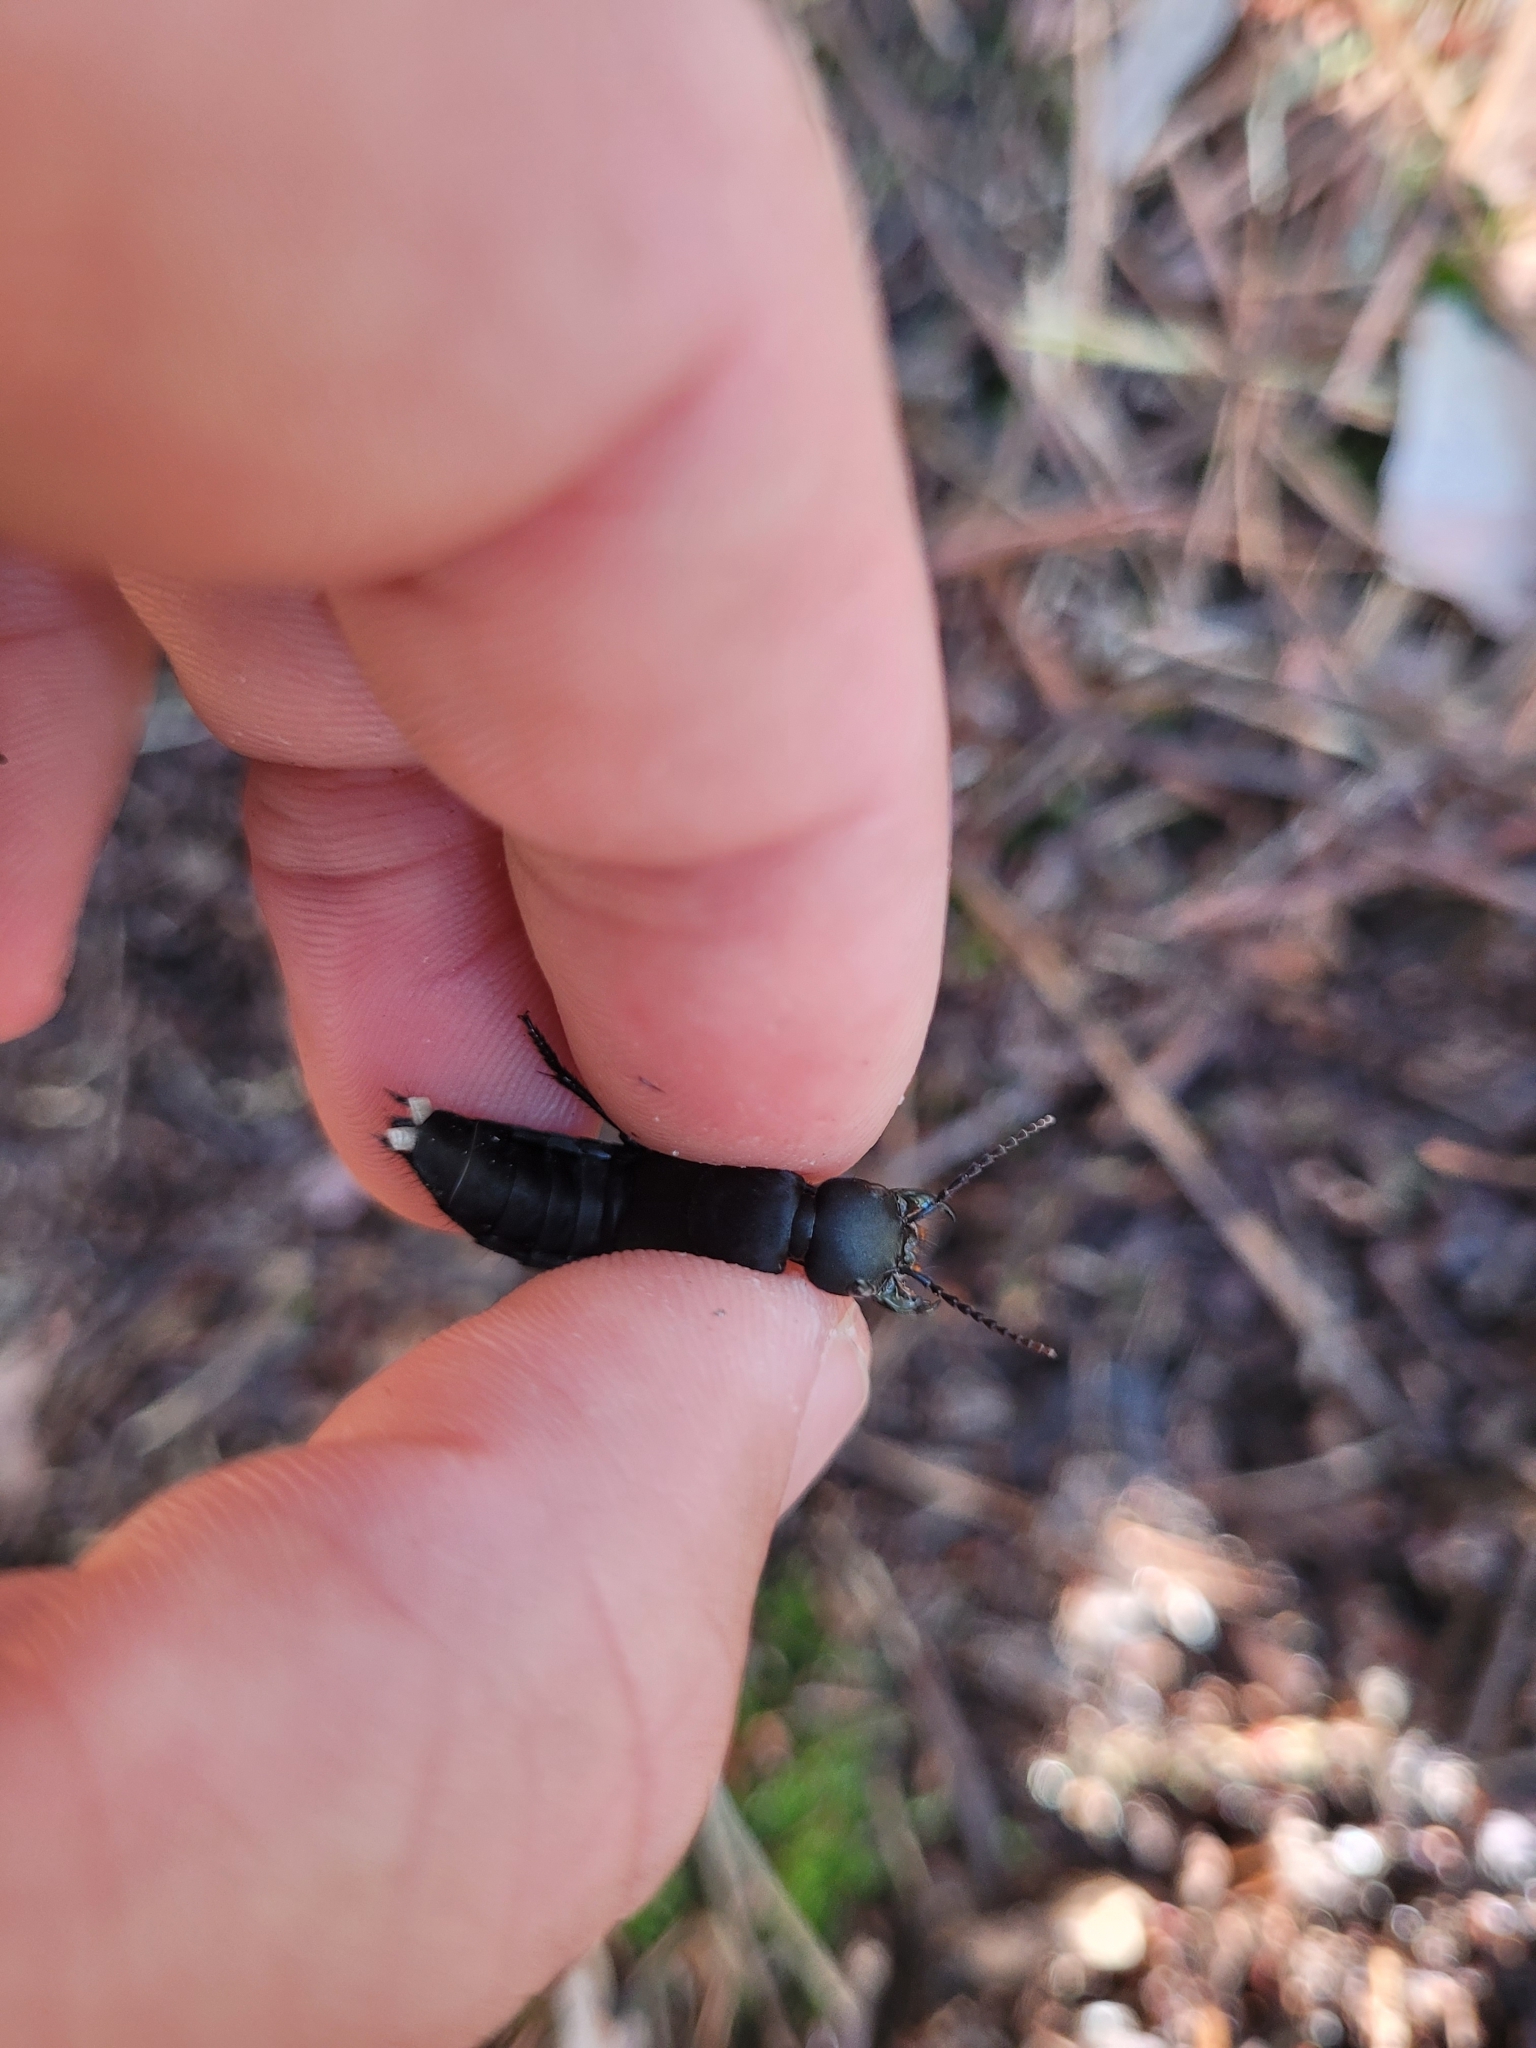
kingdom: Animalia
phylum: Arthropoda
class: Insecta
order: Coleoptera
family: Staphylinidae
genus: Ocypus
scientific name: Ocypus olens
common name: Devil's coach-horse
